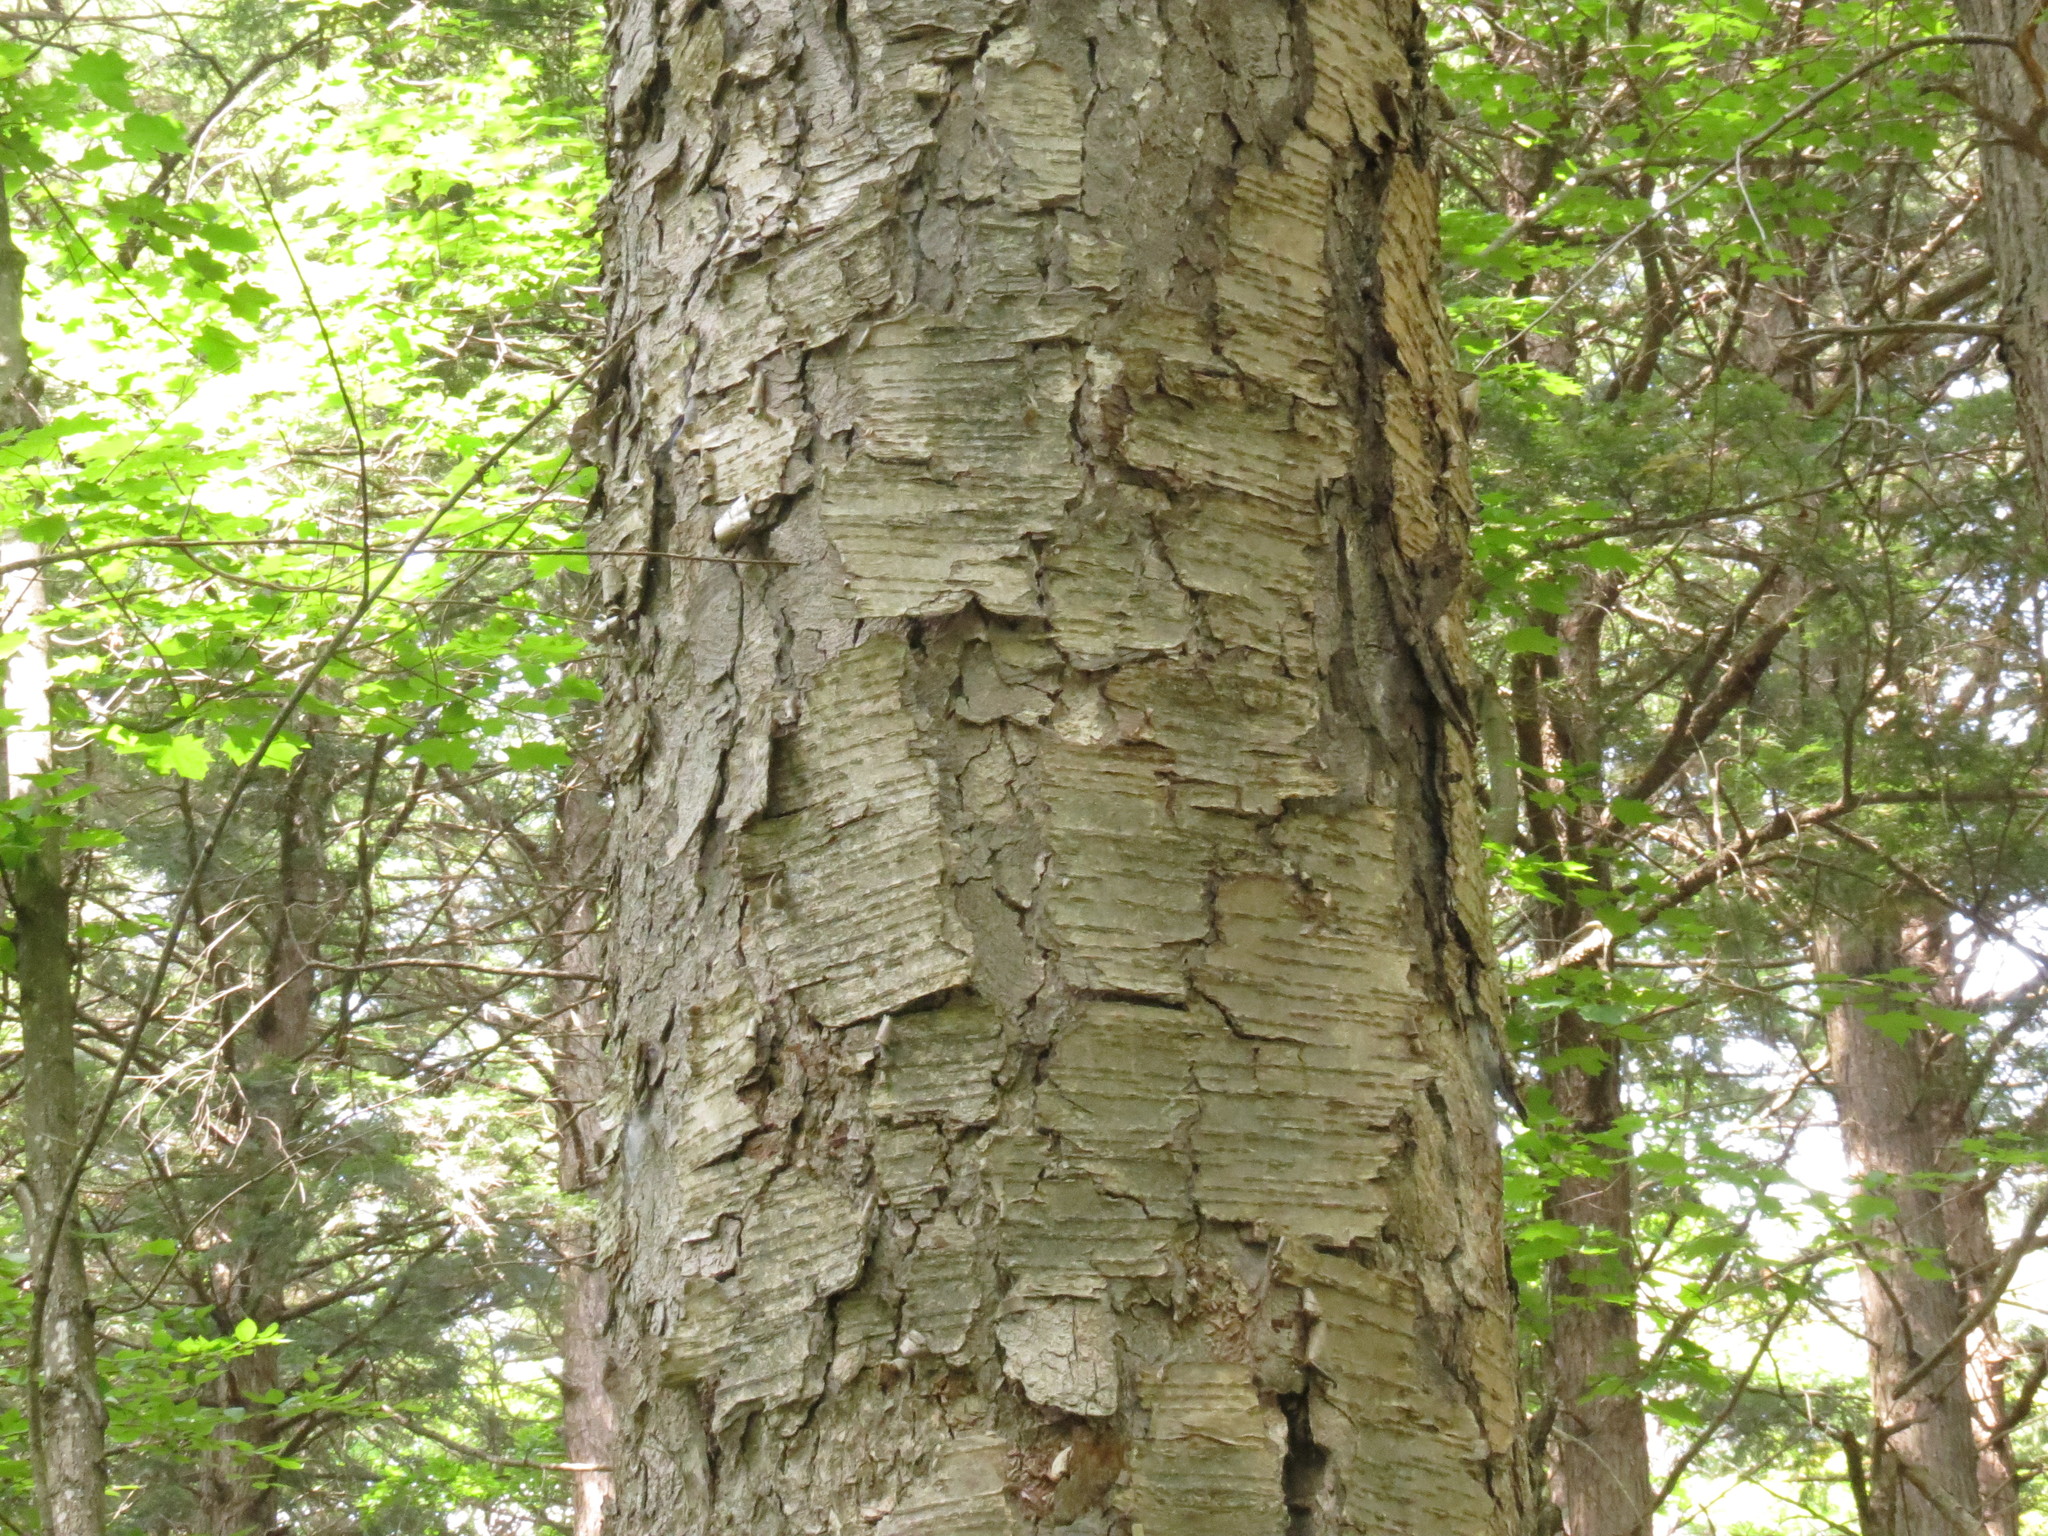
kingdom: Plantae
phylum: Tracheophyta
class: Magnoliopsida
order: Rosales
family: Rosaceae
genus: Prunus
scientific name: Prunus serotina
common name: Black cherry
